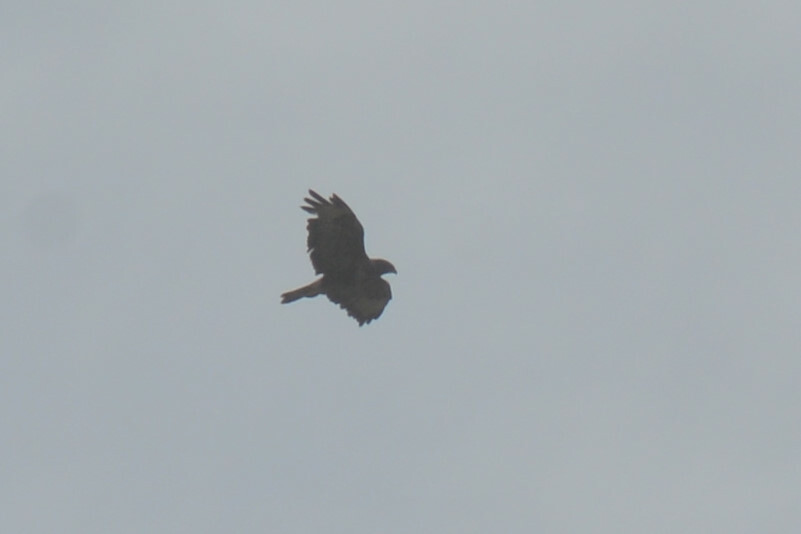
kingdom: Animalia
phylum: Chordata
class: Aves
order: Accipitriformes
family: Accipitridae
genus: Buteo
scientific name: Buteo buteo
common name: Common buzzard
